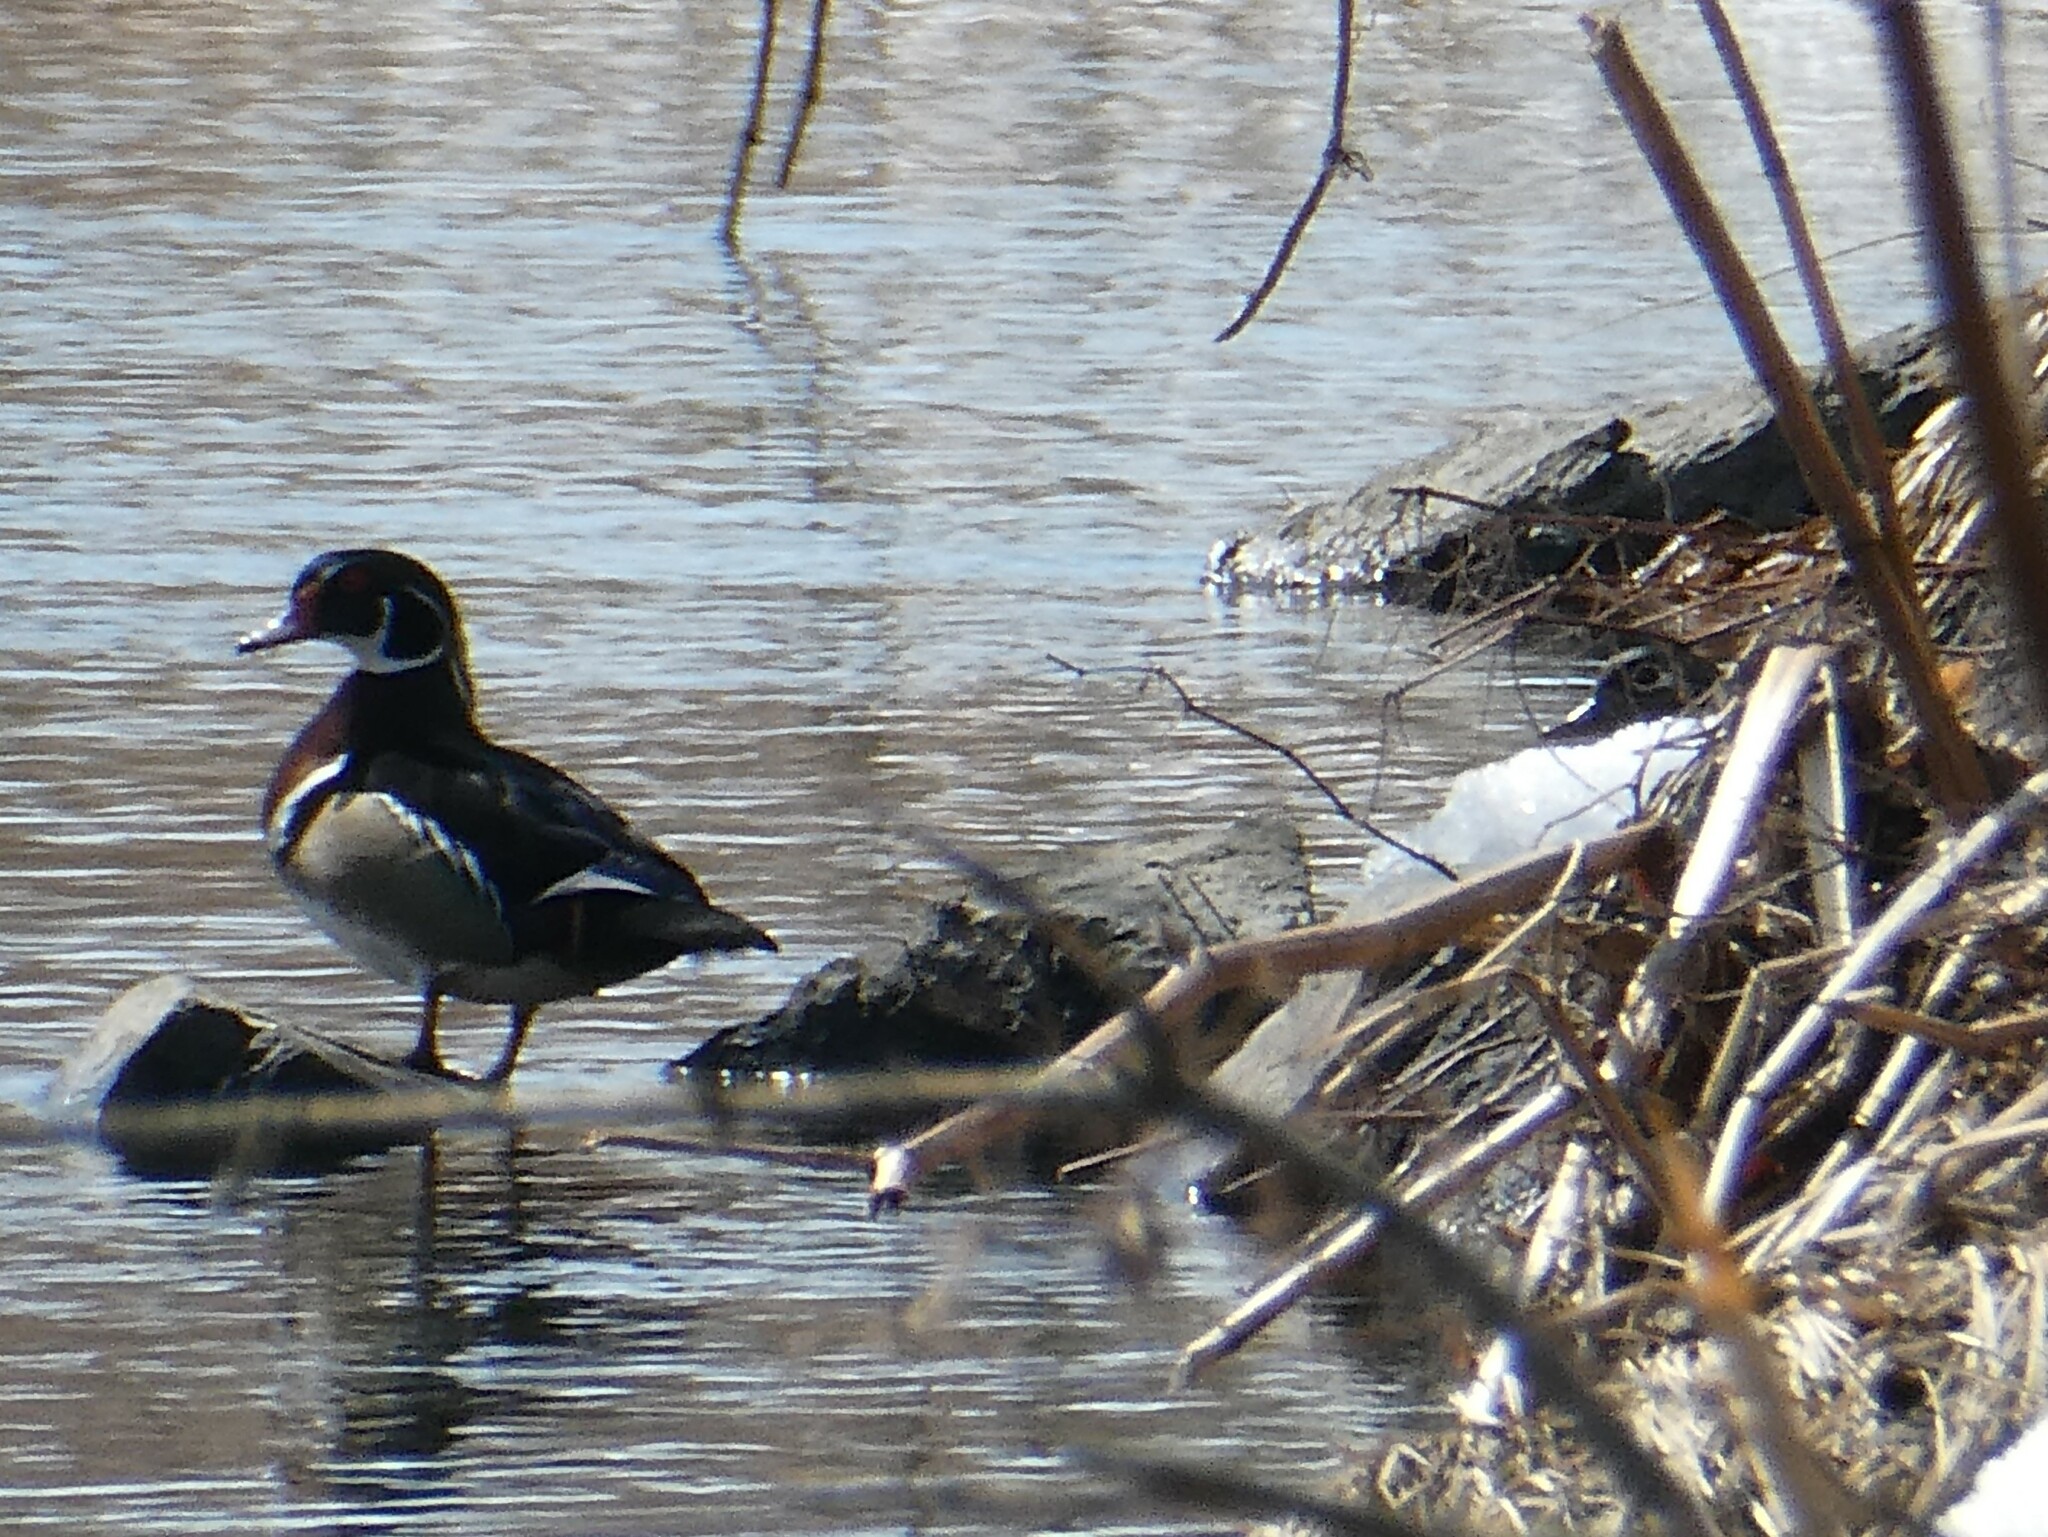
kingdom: Animalia
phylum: Chordata
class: Aves
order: Anseriformes
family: Anatidae
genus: Aix
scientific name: Aix sponsa
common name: Wood duck
